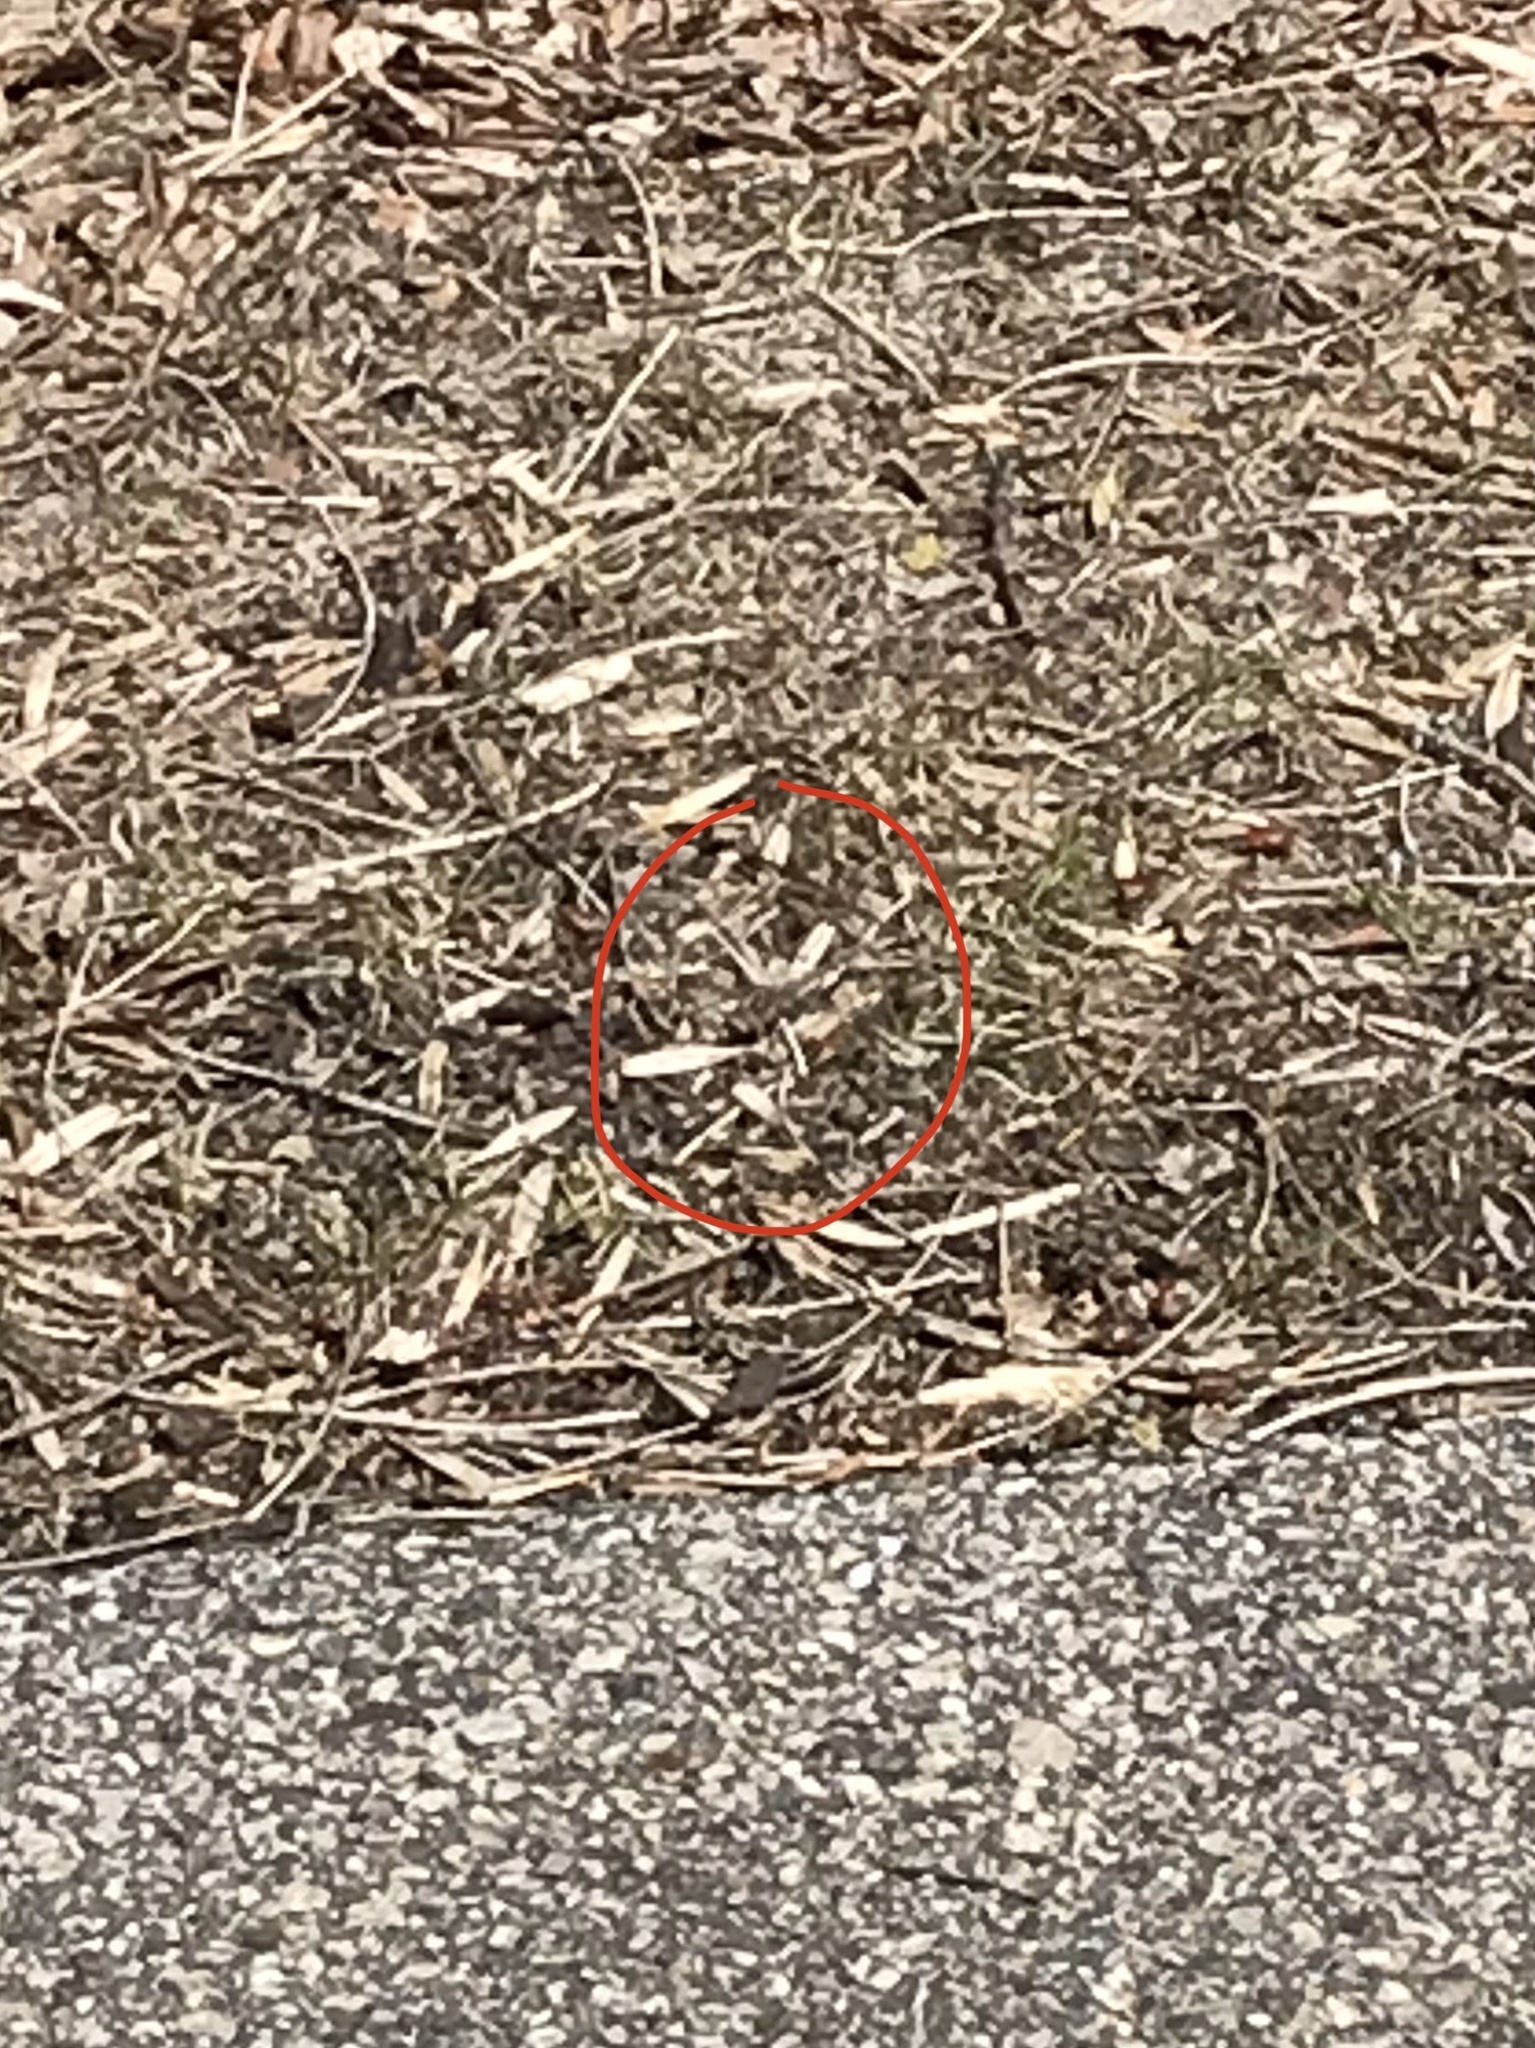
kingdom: Animalia
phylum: Arthropoda
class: Insecta
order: Odonata
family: Libellulidae
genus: Sympetrum
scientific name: Sympetrum corruptum
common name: Variegated meadowhawk
